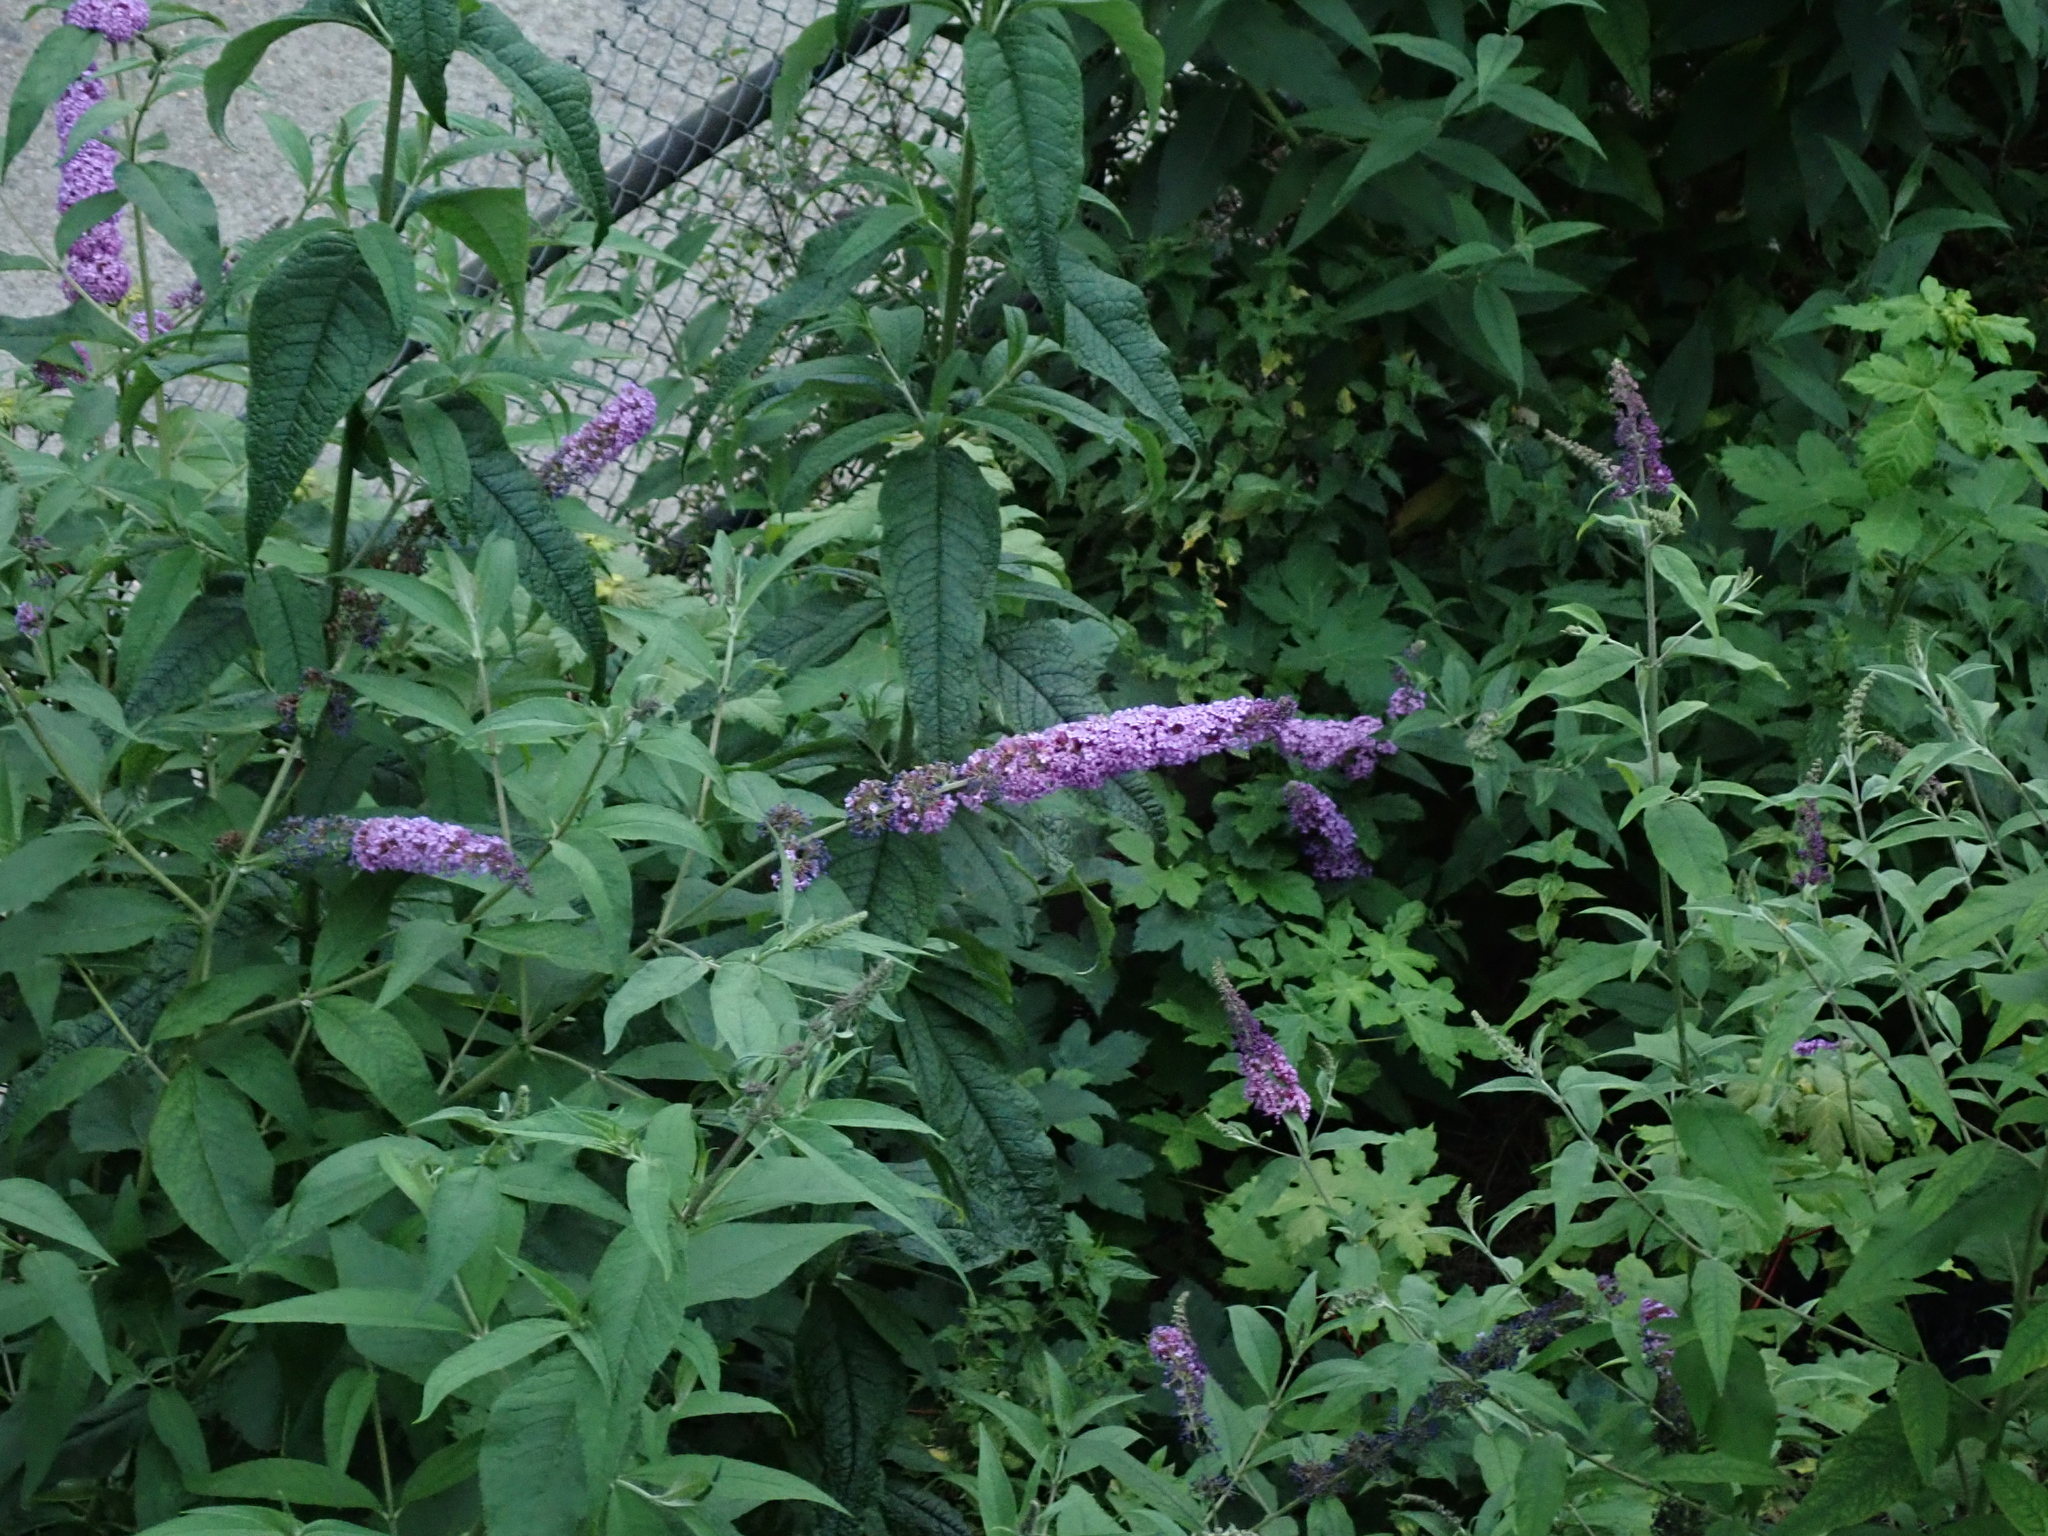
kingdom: Plantae
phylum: Tracheophyta
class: Magnoliopsida
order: Lamiales
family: Scrophulariaceae
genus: Buddleja
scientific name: Buddleja davidii
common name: Butterfly-bush
